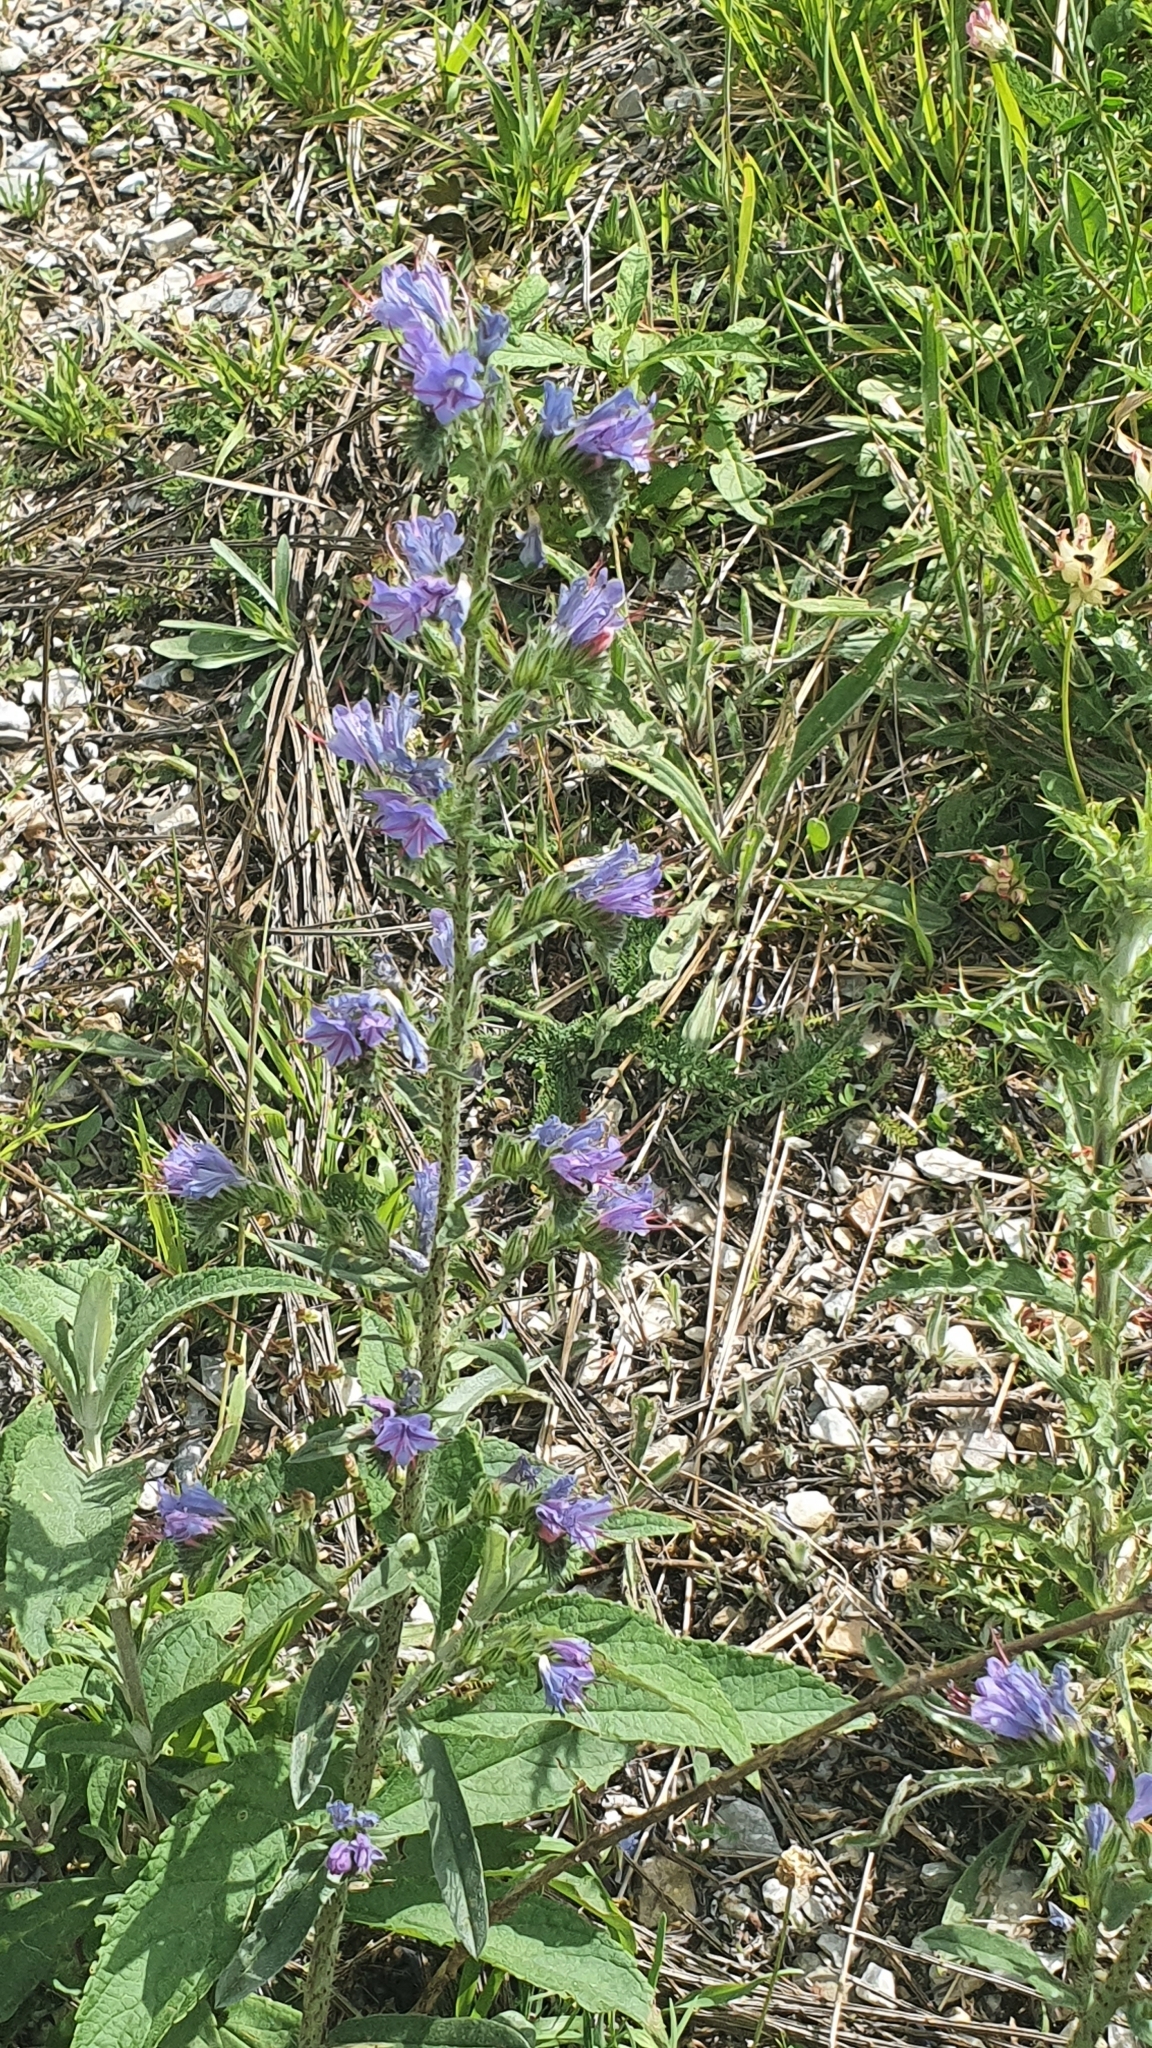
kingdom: Plantae
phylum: Tracheophyta
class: Magnoliopsida
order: Boraginales
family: Boraginaceae
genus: Echium
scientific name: Echium vulgare
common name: Common viper's bugloss
